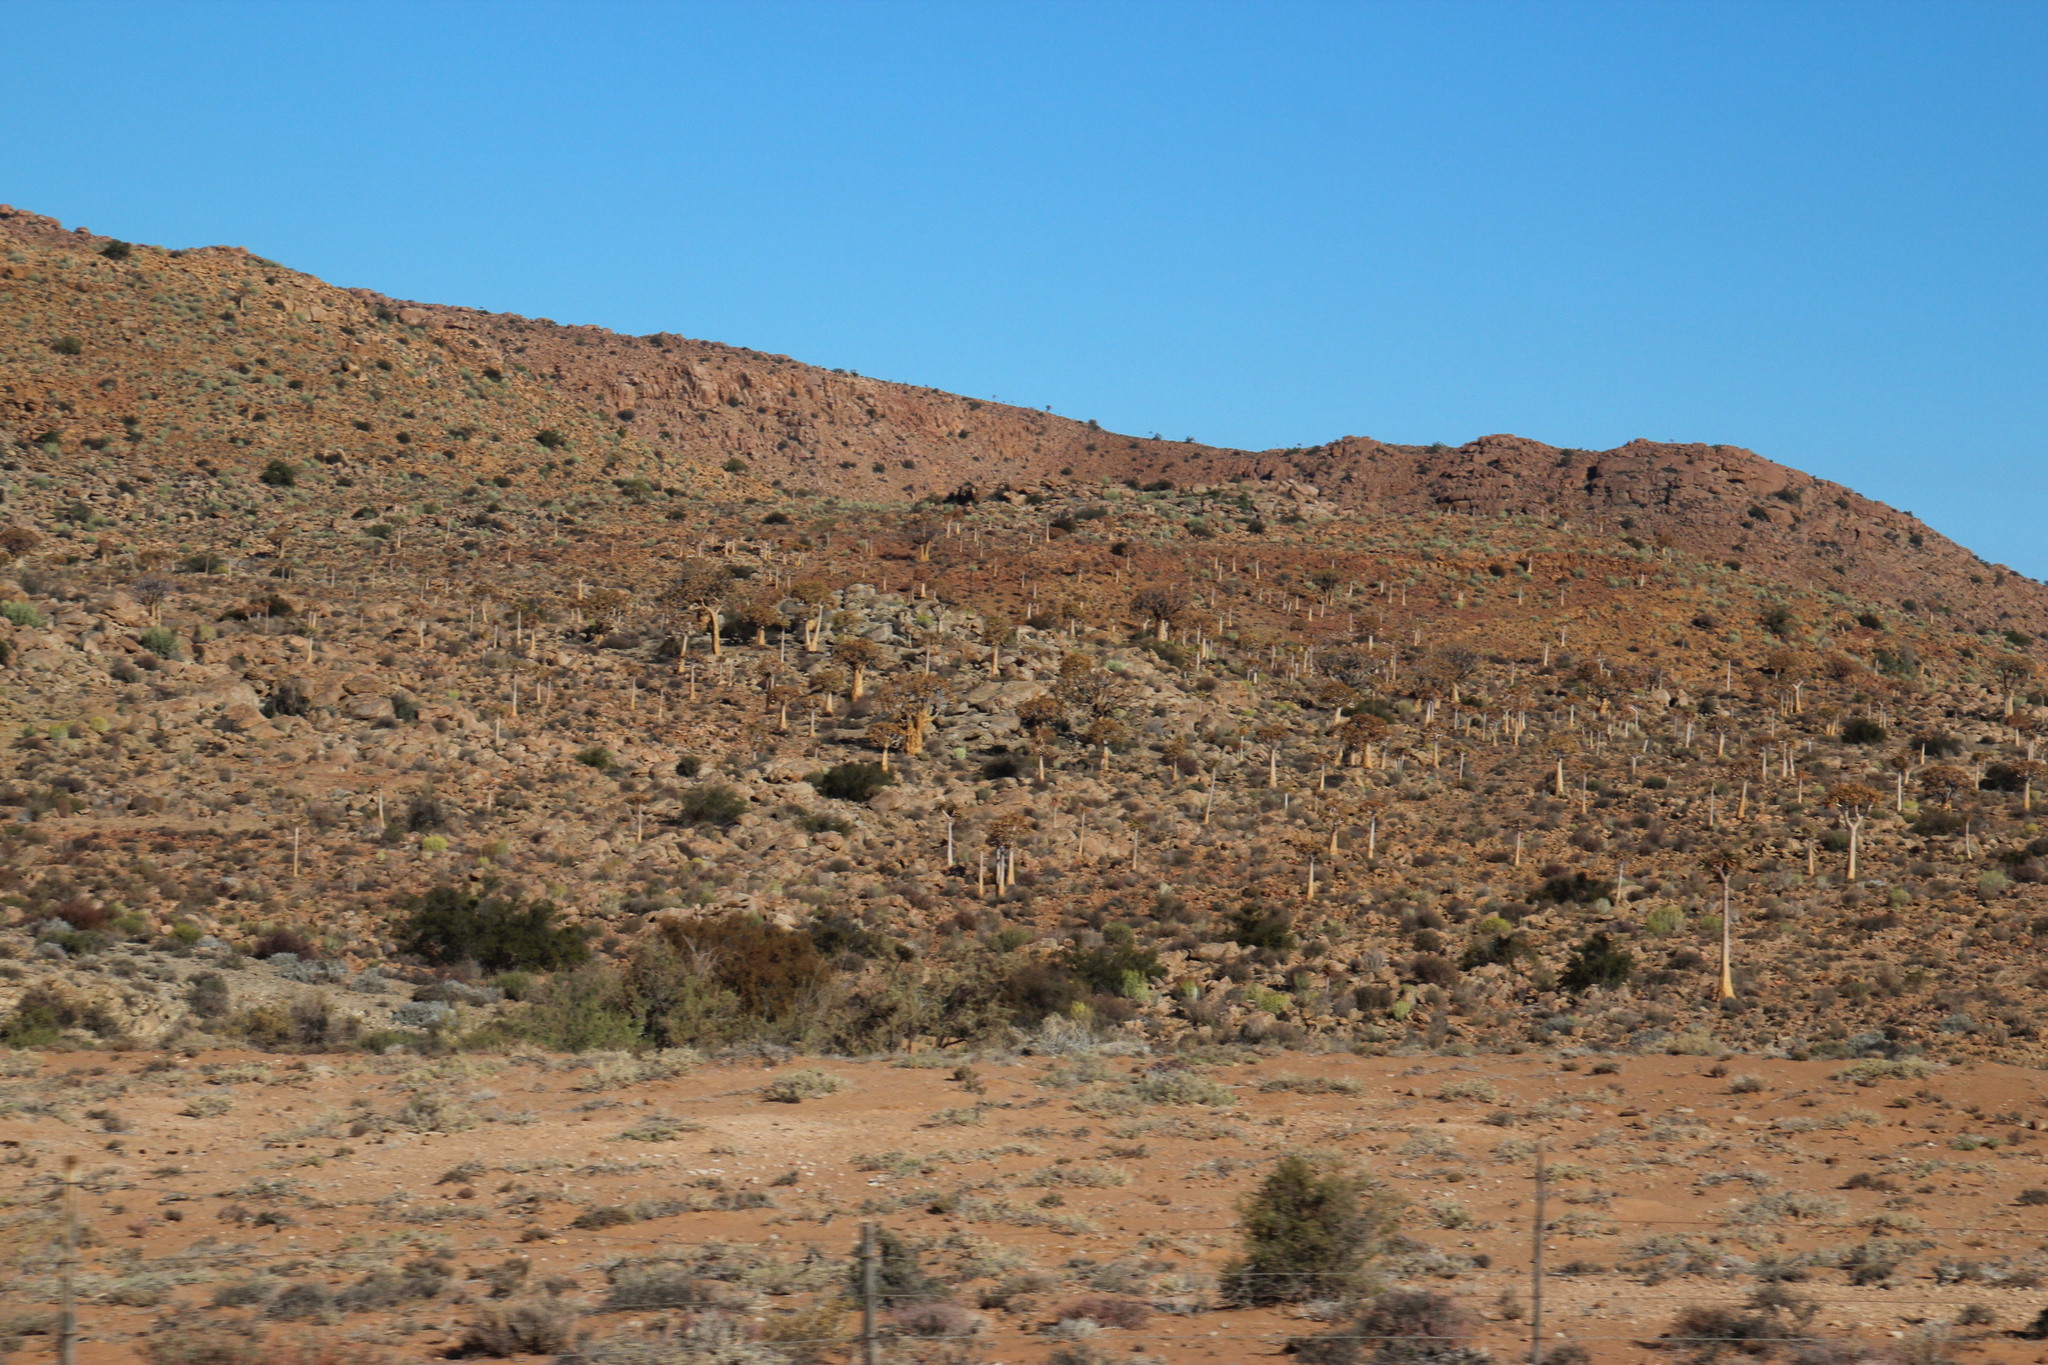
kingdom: Plantae
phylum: Tracheophyta
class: Liliopsida
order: Asparagales
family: Asphodelaceae
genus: Aloidendron
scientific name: Aloidendron dichotomum
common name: Quiver tree
